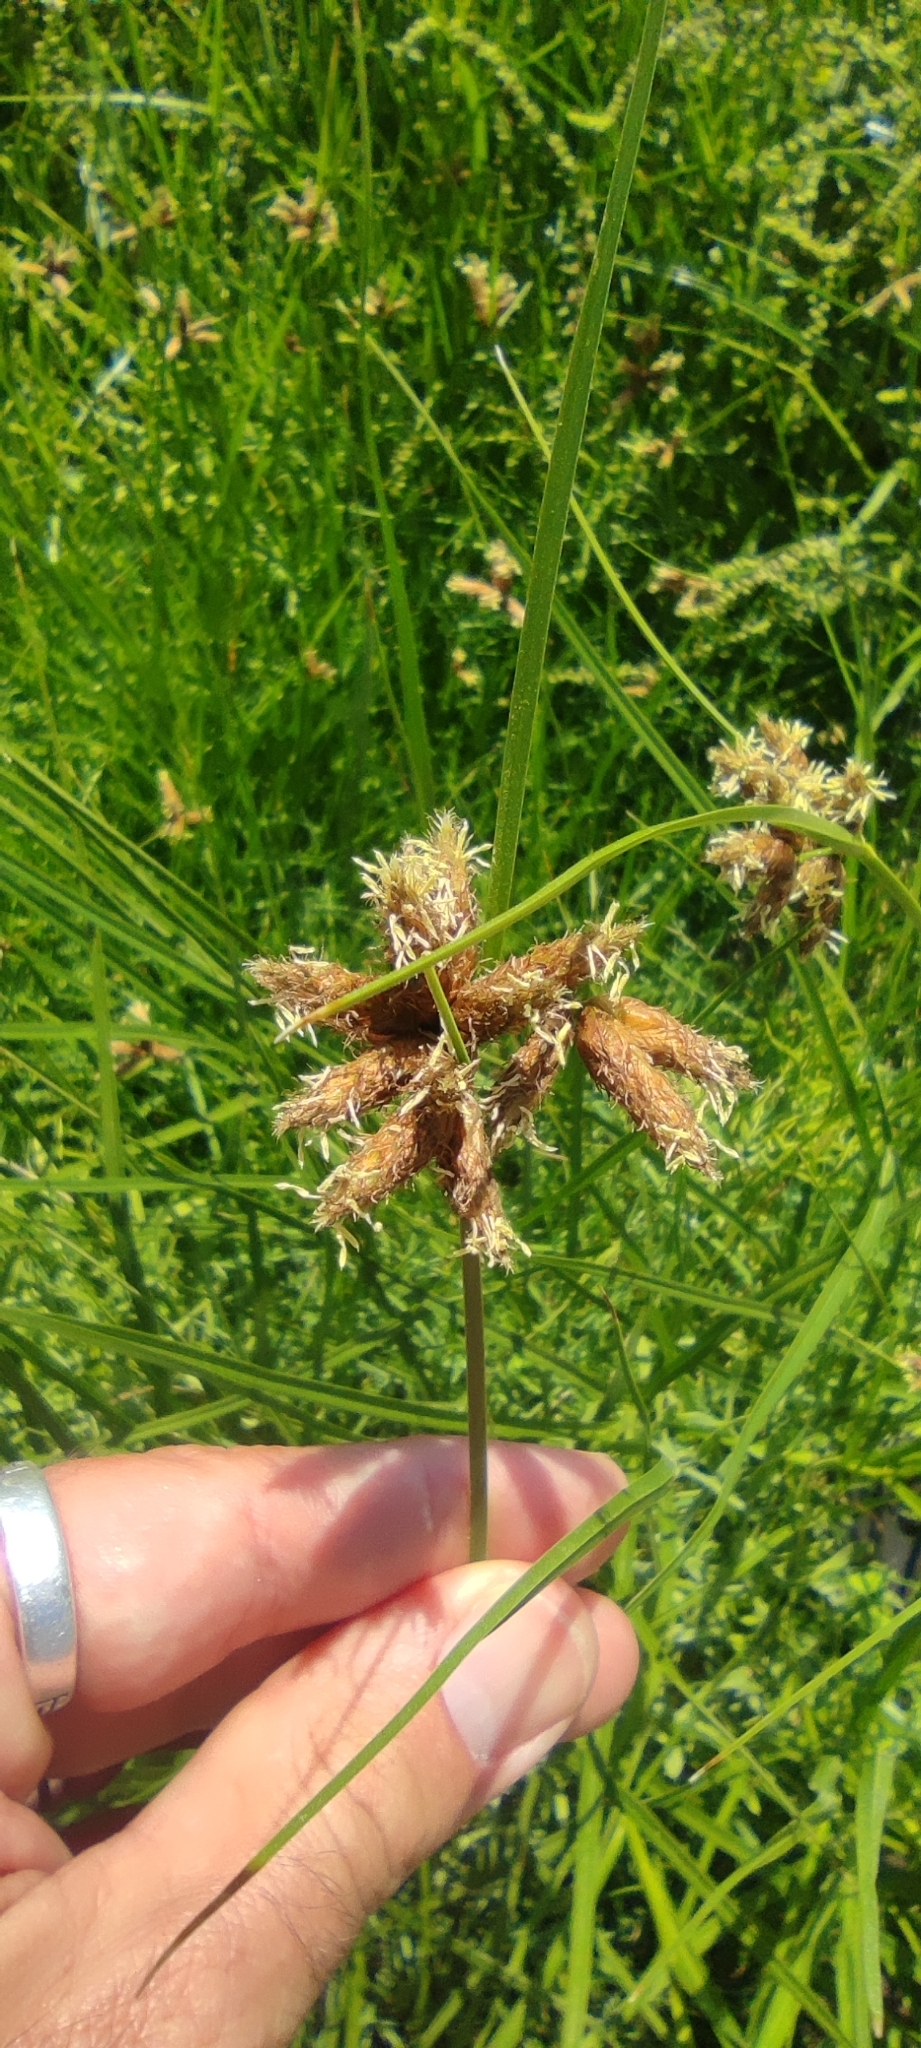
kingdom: Plantae
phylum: Tracheophyta
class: Liliopsida
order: Poales
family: Cyperaceae
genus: Bolboschoenus
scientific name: Bolboschoenus maritimus
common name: Sea club-rush
